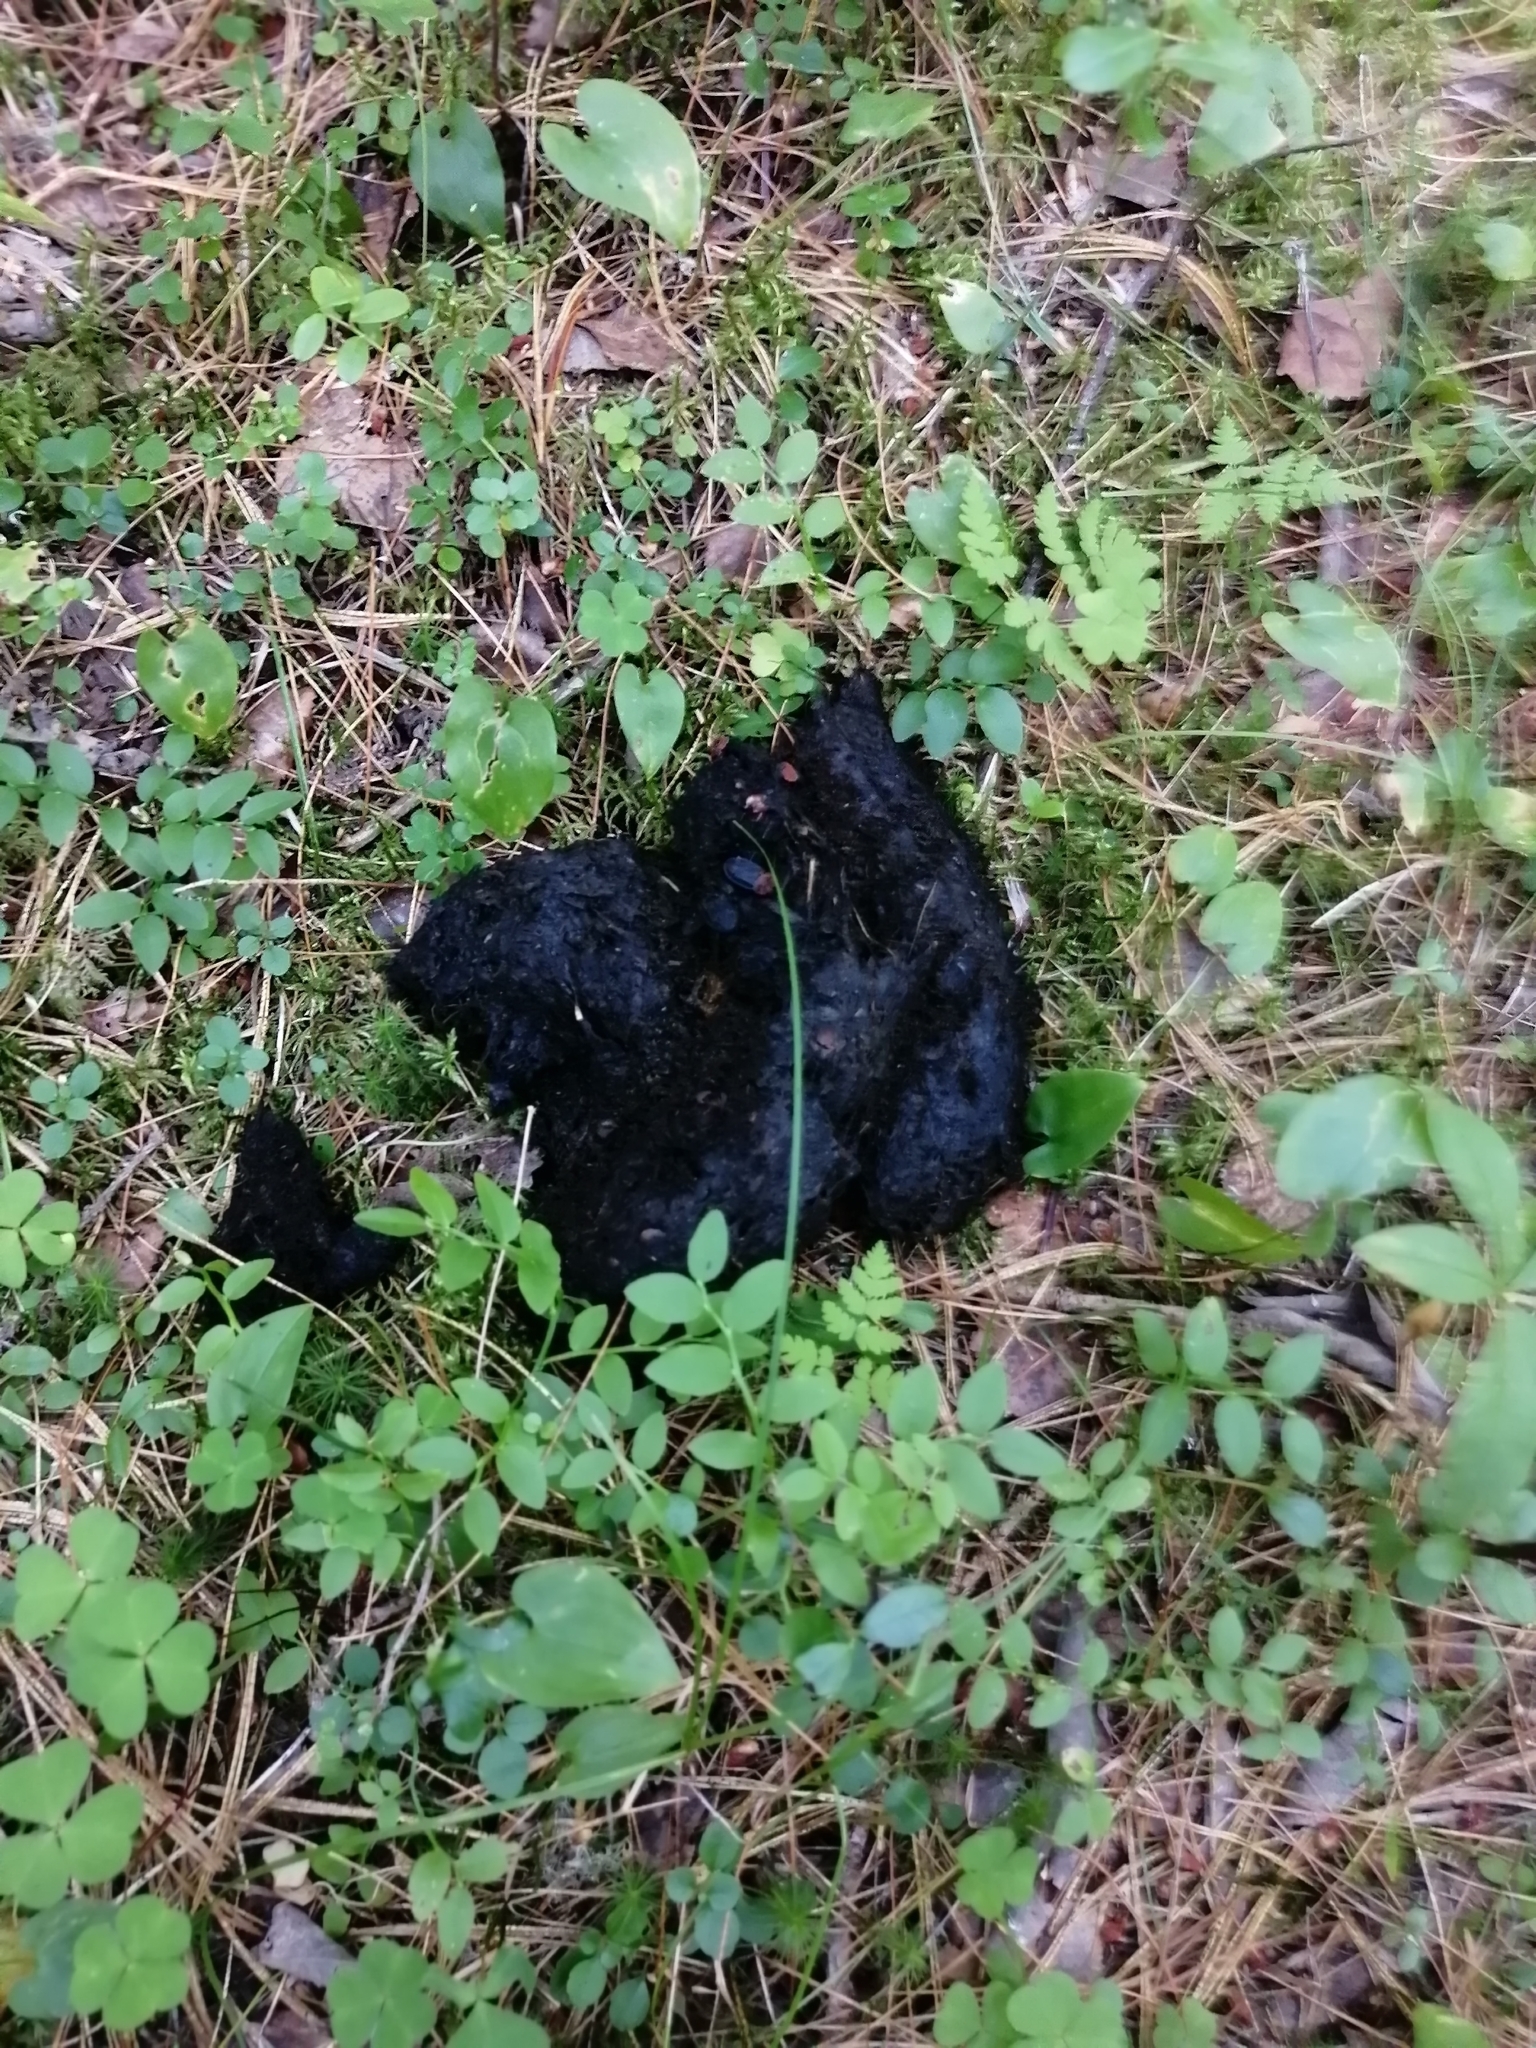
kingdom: Animalia
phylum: Chordata
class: Mammalia
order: Carnivora
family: Ursidae
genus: Ursus
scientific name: Ursus arctos
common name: Brown bear
